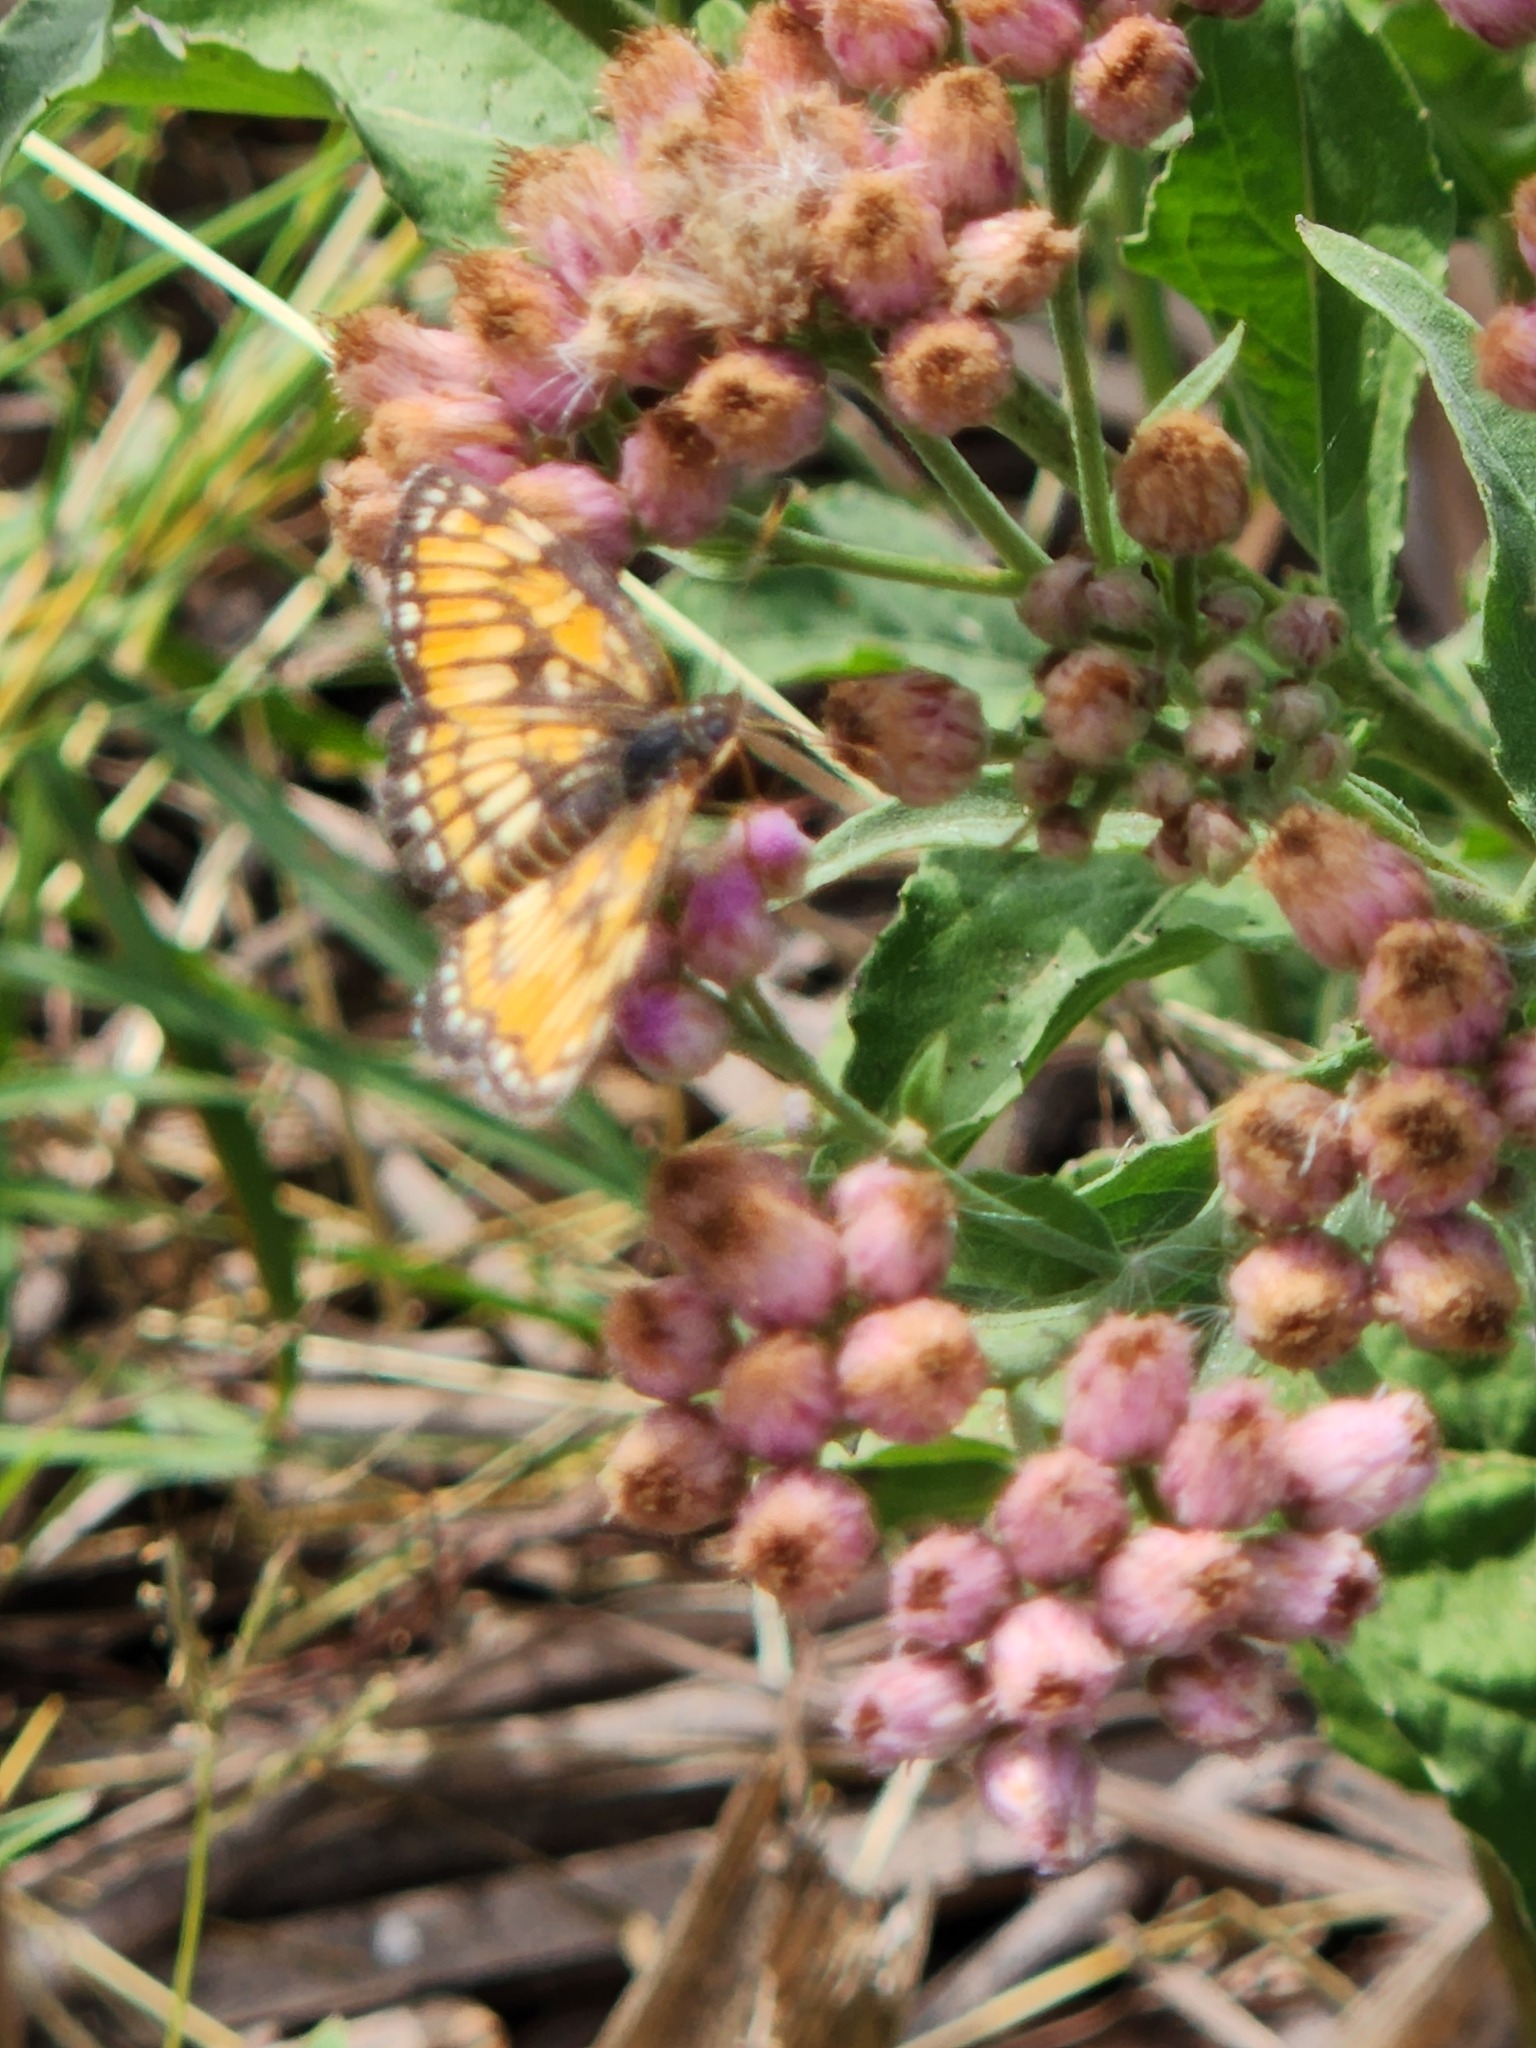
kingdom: Animalia
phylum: Arthropoda
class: Insecta
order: Lepidoptera
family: Nymphalidae
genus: Thessalia
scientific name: Thessalia theona
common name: Nymphalid moth
